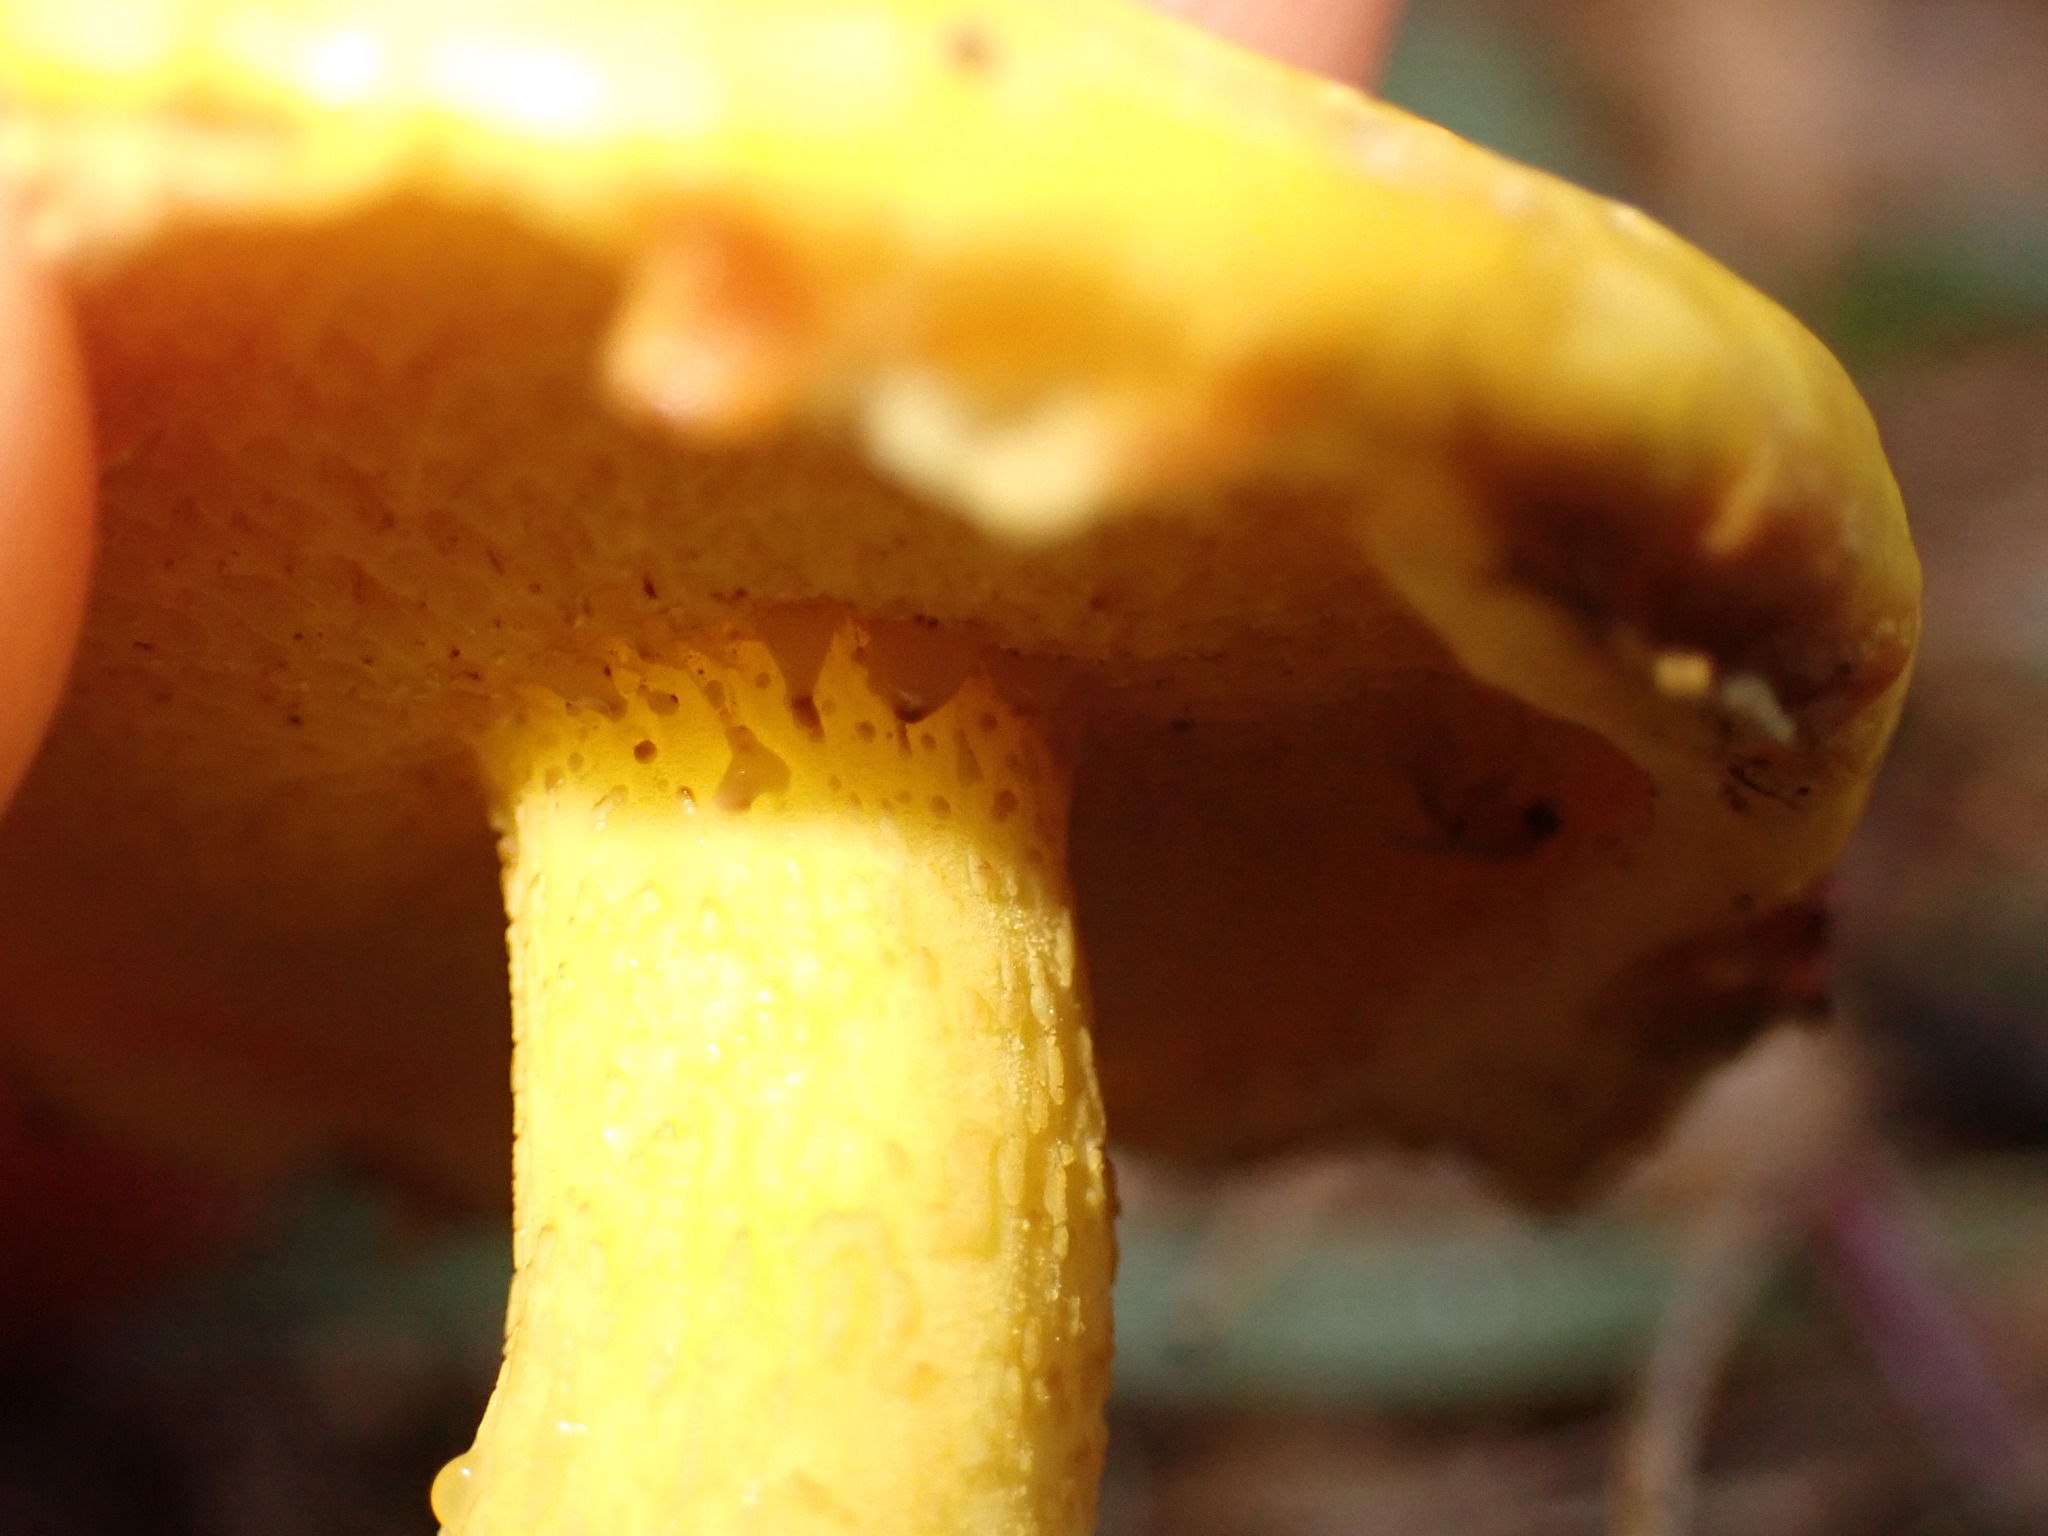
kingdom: Fungi
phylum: Basidiomycota
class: Agaricomycetes
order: Boletales
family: Suillaceae
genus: Suillus
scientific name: Suillus americanus
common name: Chicken fat mushroom
